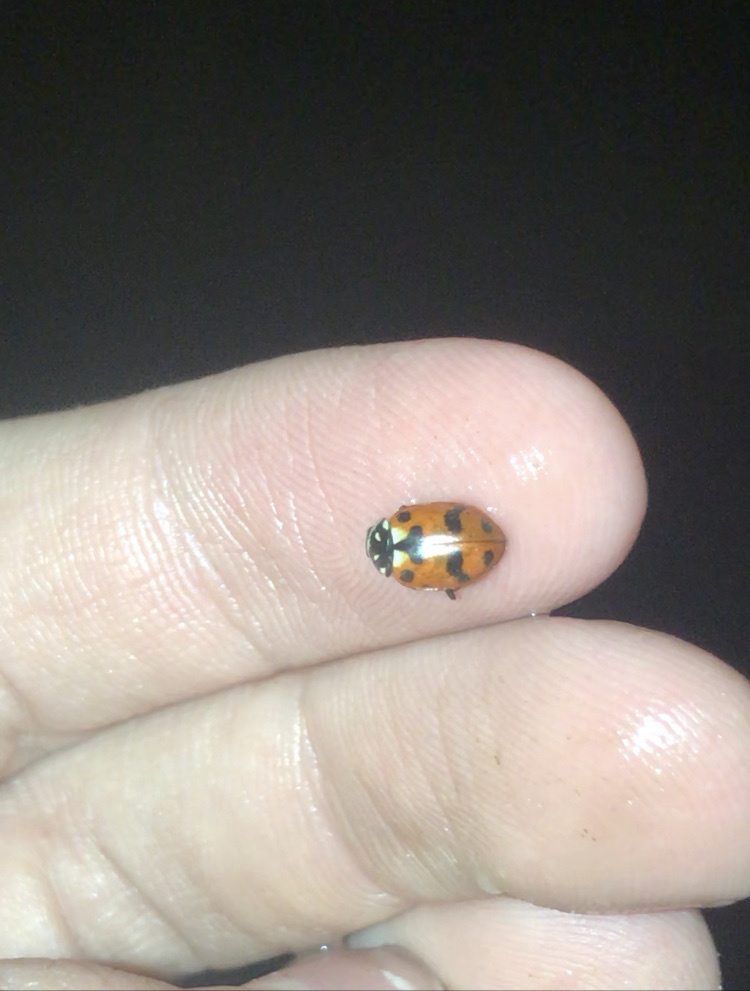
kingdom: Animalia
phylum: Arthropoda
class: Insecta
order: Coleoptera
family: Coccinellidae
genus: Hippodamia
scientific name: Hippodamia caseyi
